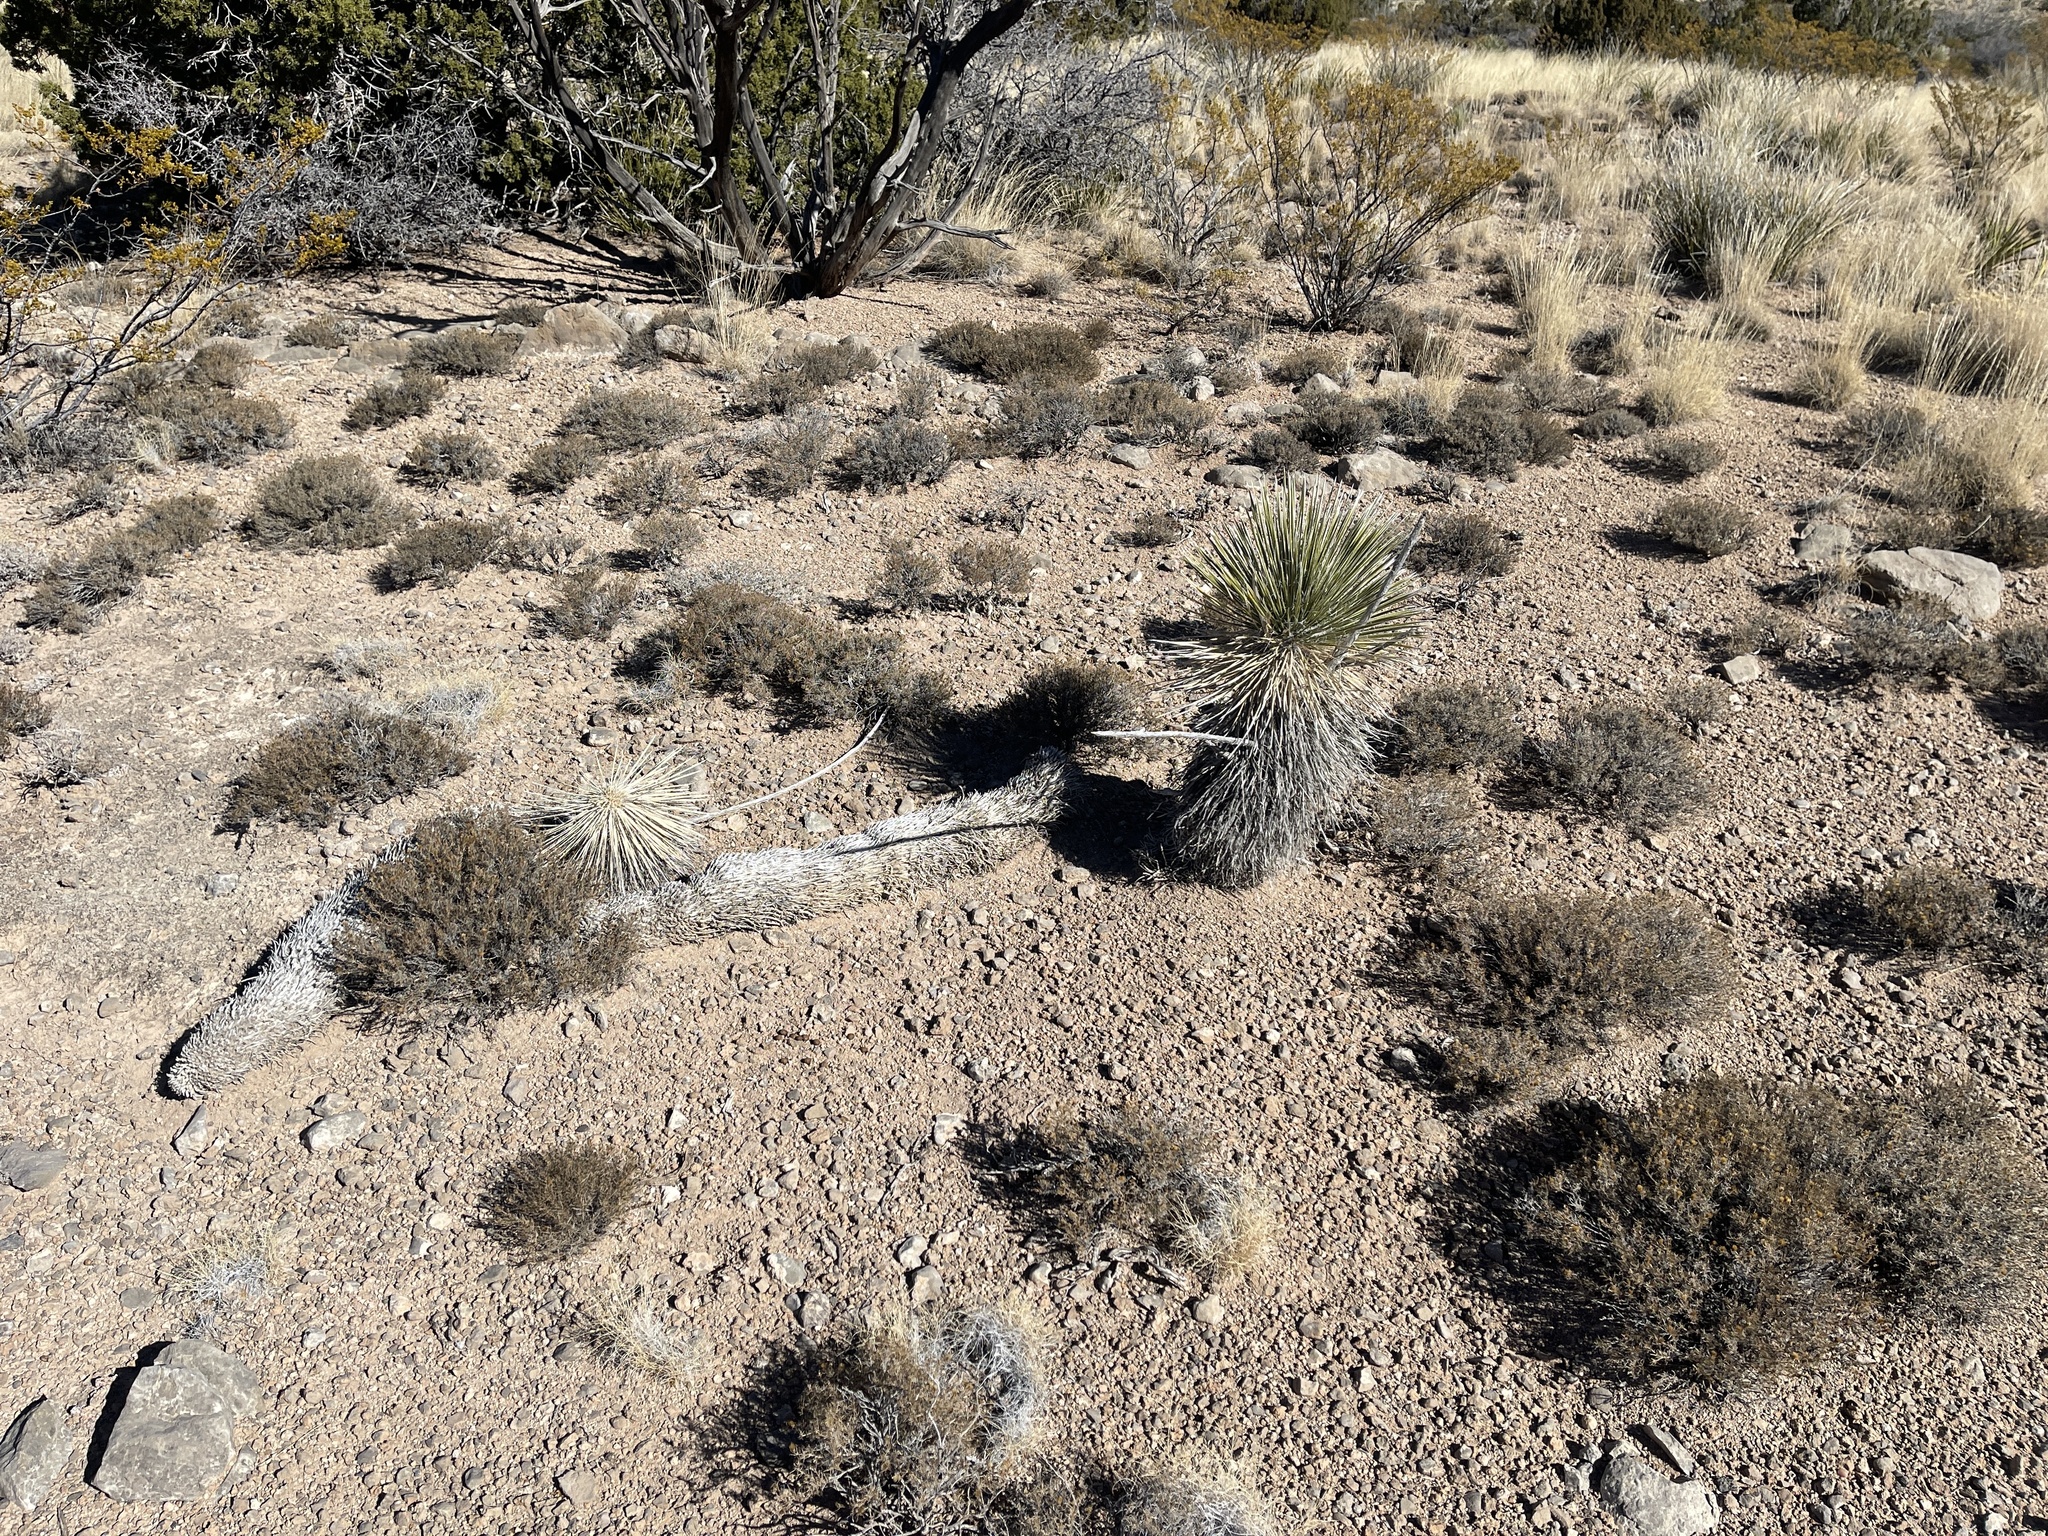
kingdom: Plantae
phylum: Tracheophyta
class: Liliopsida
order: Asparagales
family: Asparagaceae
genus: Yucca
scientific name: Yucca elata
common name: Palmella
